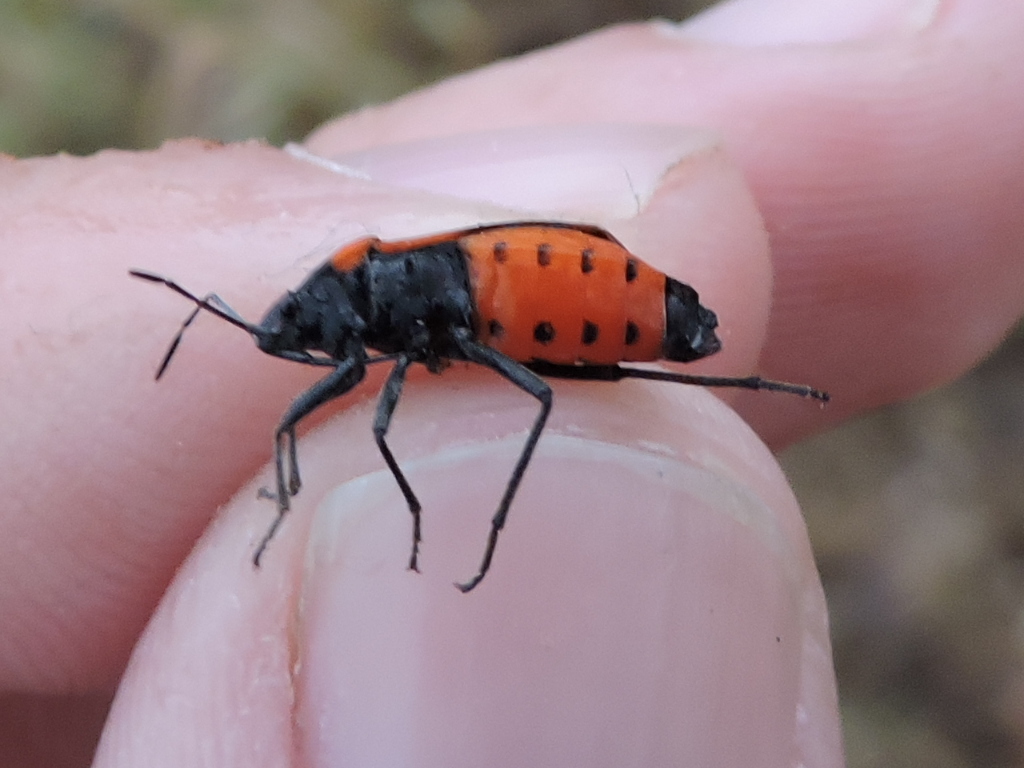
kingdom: Animalia
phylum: Arthropoda
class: Insecta
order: Hemiptera
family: Lygaeidae
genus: Lygaeus
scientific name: Lygaeus kalmii
